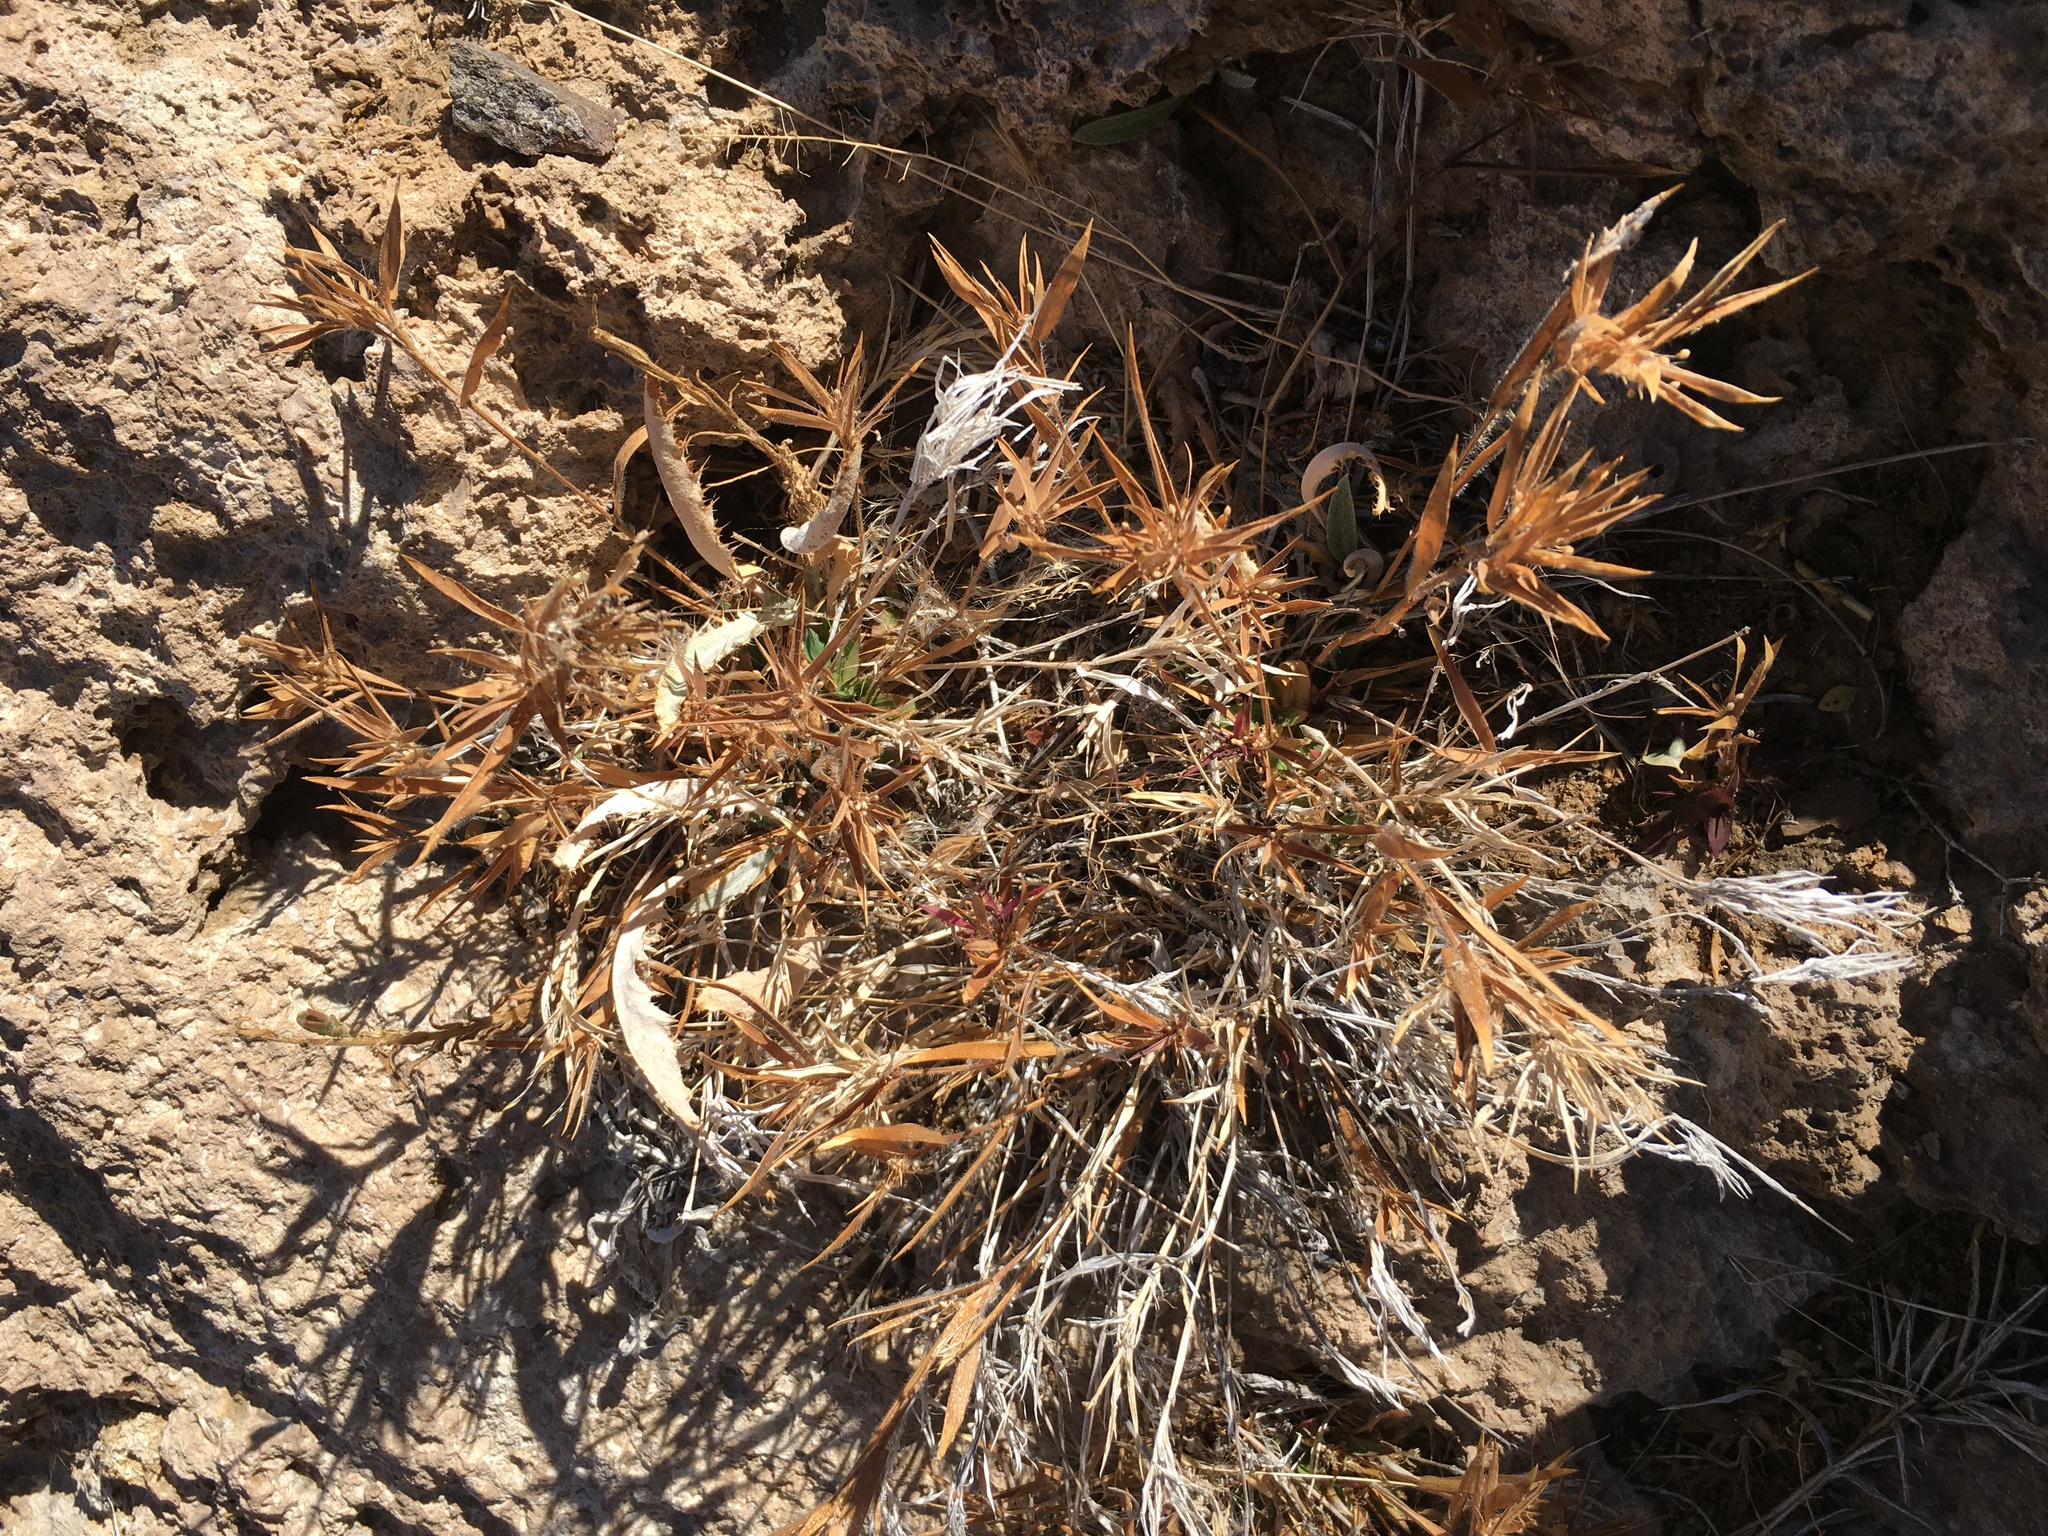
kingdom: Plantae
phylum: Tracheophyta
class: Liliopsida
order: Poales
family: Poaceae
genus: Dichanthelium
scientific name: Dichanthelium lanuginosum
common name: Woolly panicgrass
